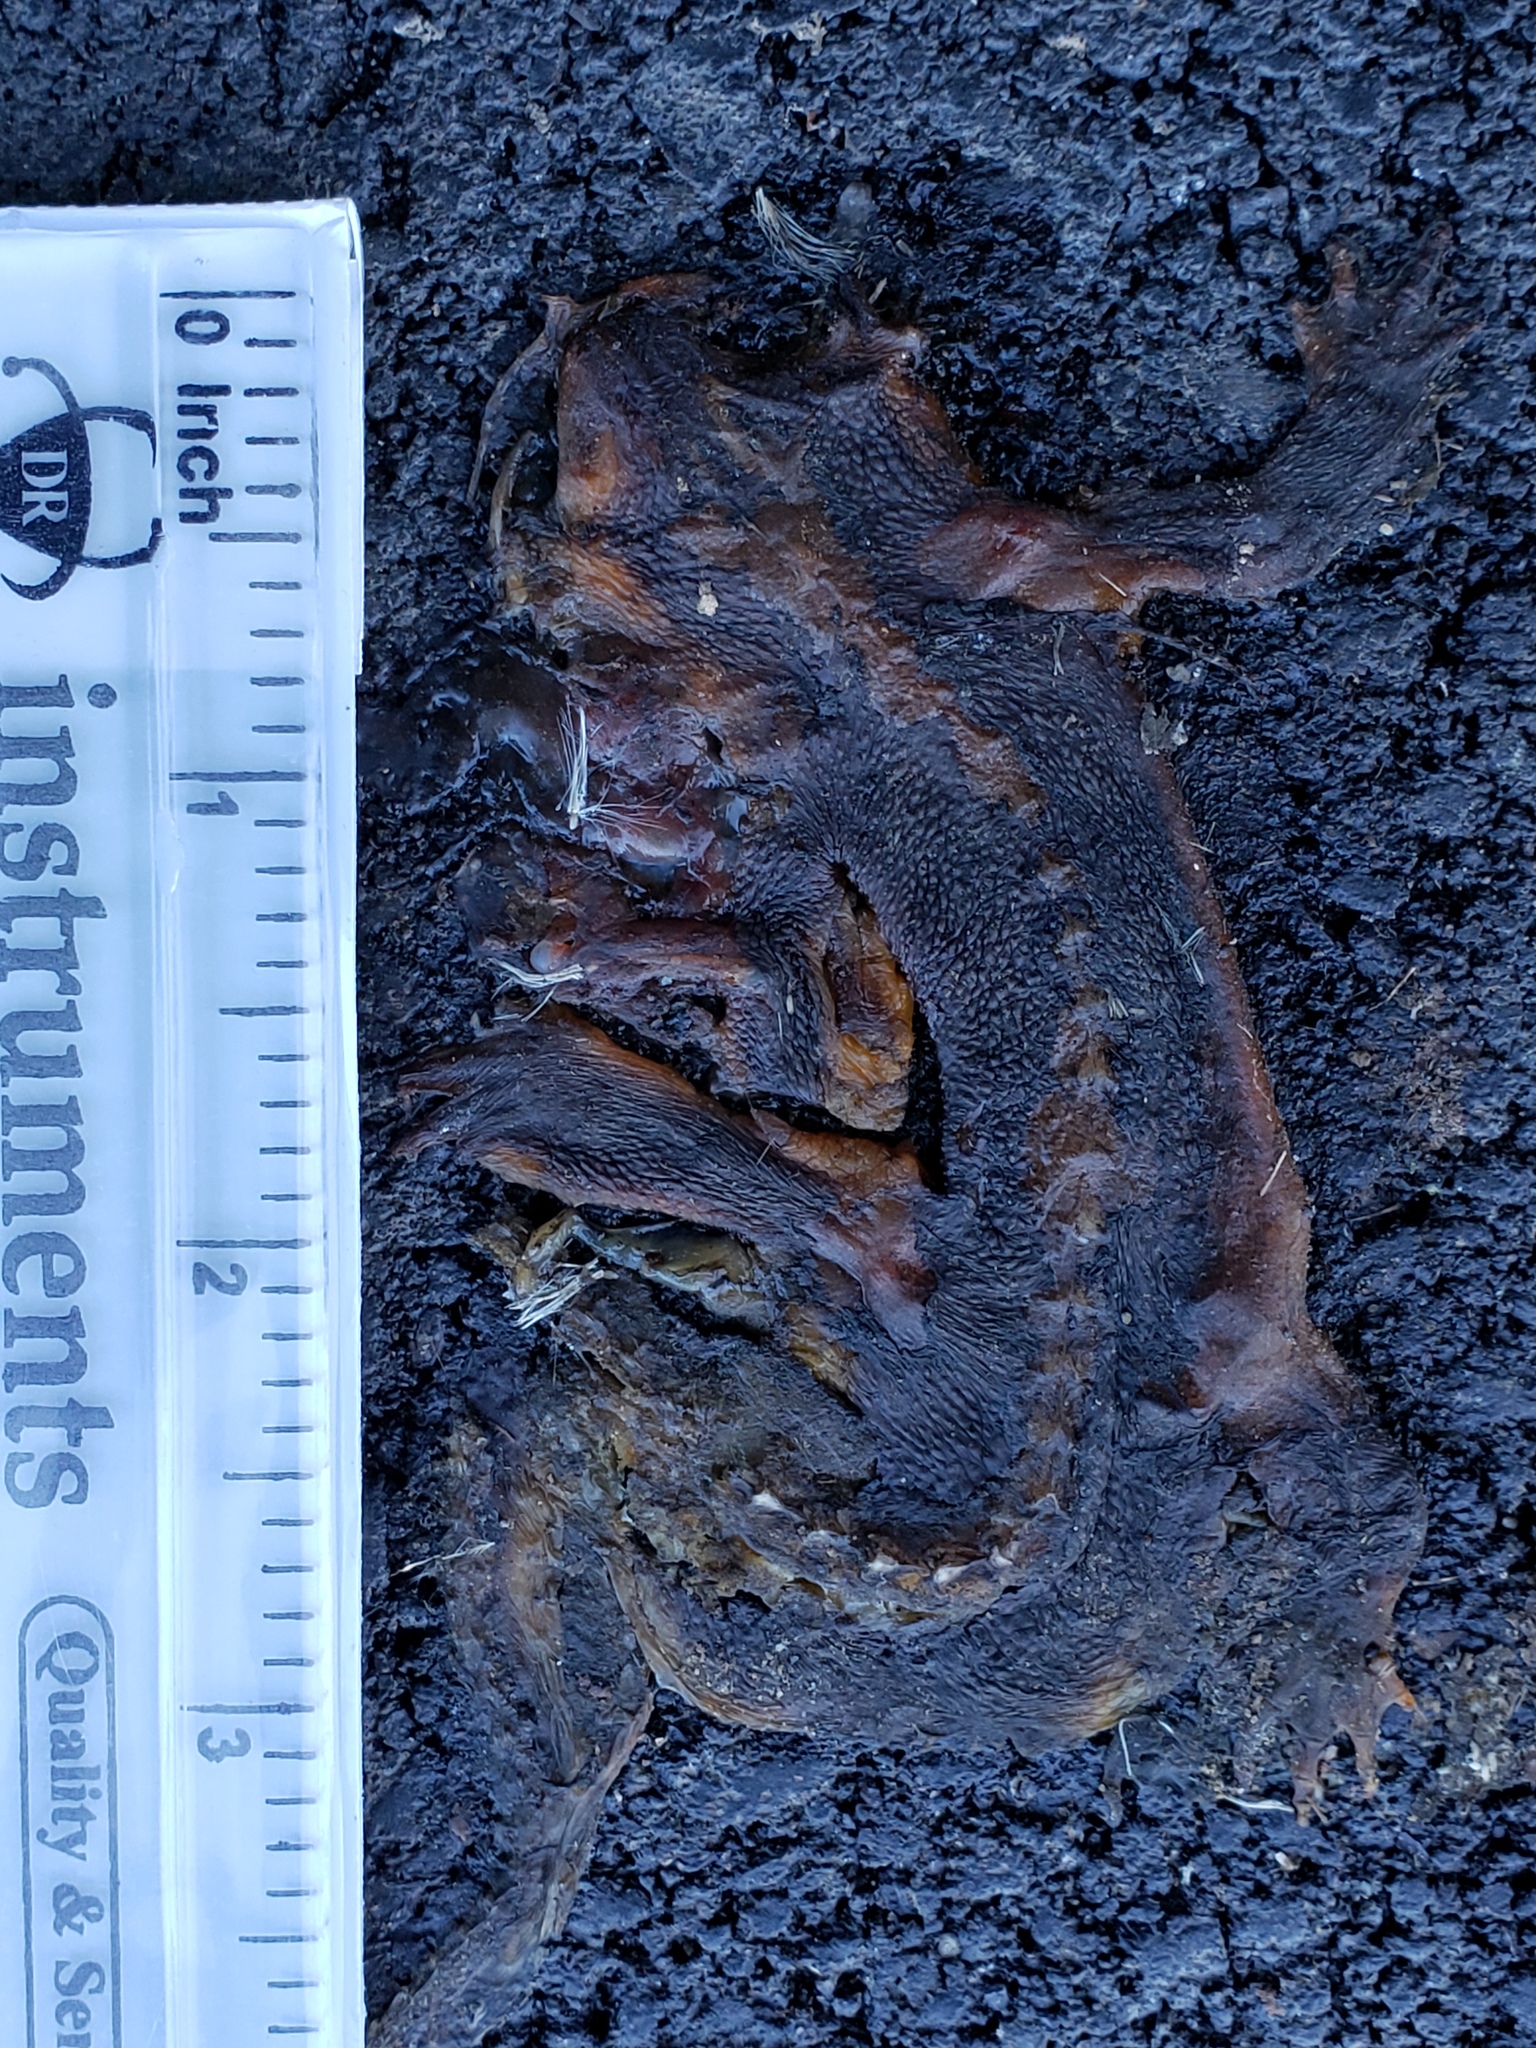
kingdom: Animalia
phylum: Chordata
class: Amphibia
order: Caudata
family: Salamandridae
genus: Taricha
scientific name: Taricha
